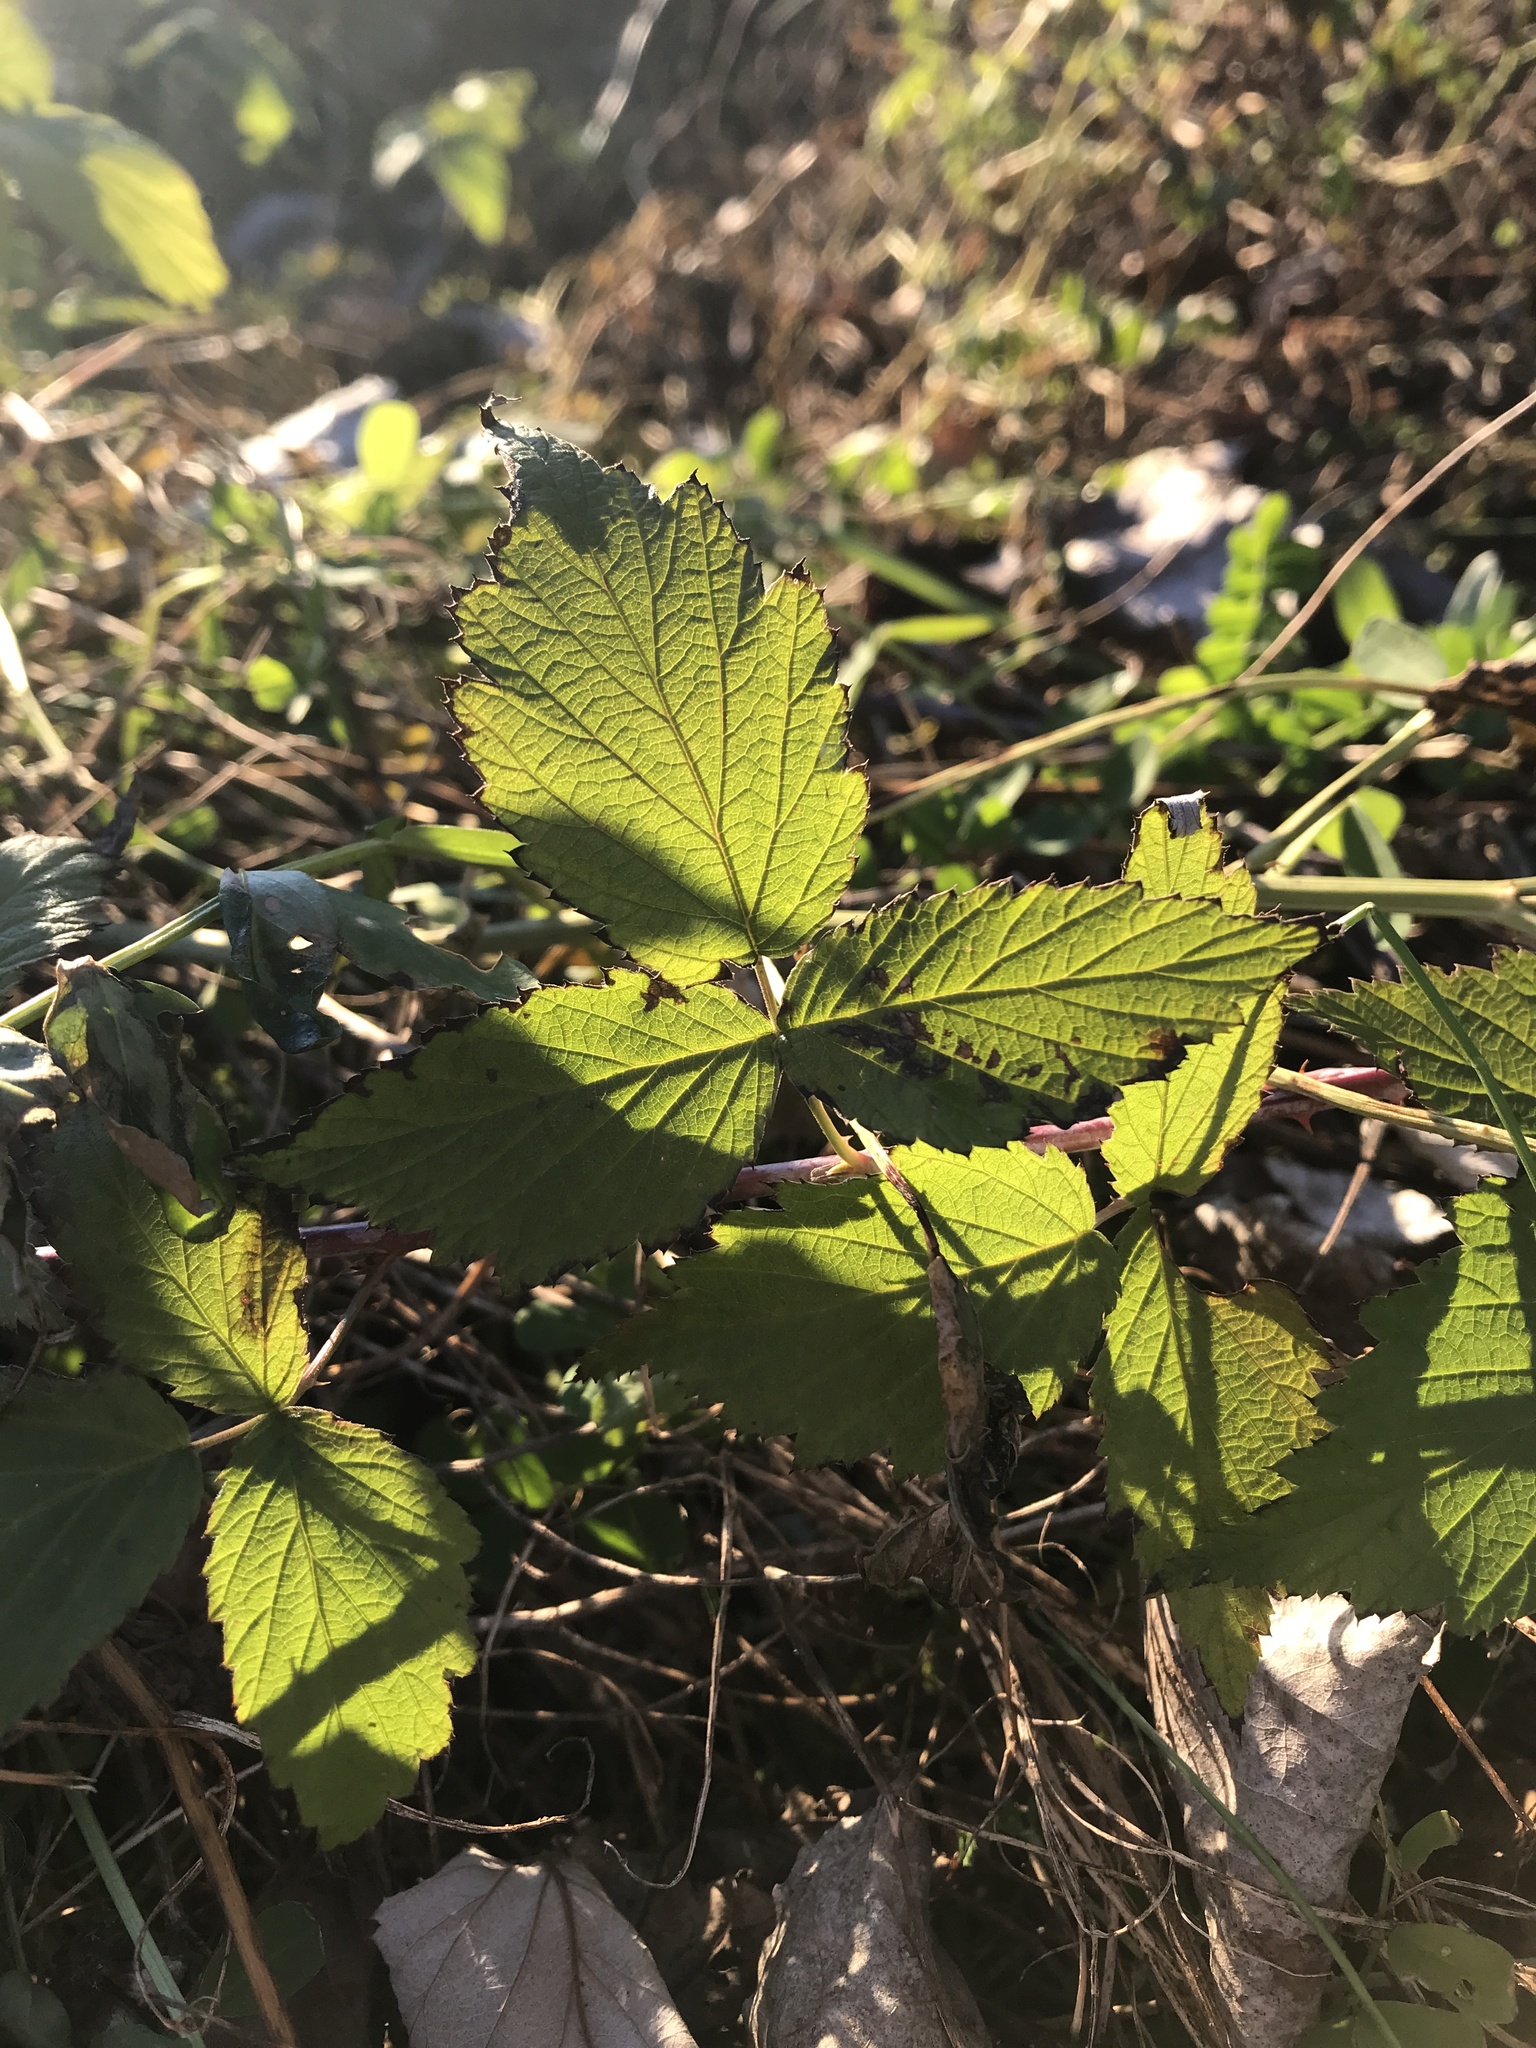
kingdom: Plantae
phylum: Tracheophyta
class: Magnoliopsida
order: Rosales
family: Rosaceae
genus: Rubus
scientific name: Rubus occidentalis
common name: Black raspberry
